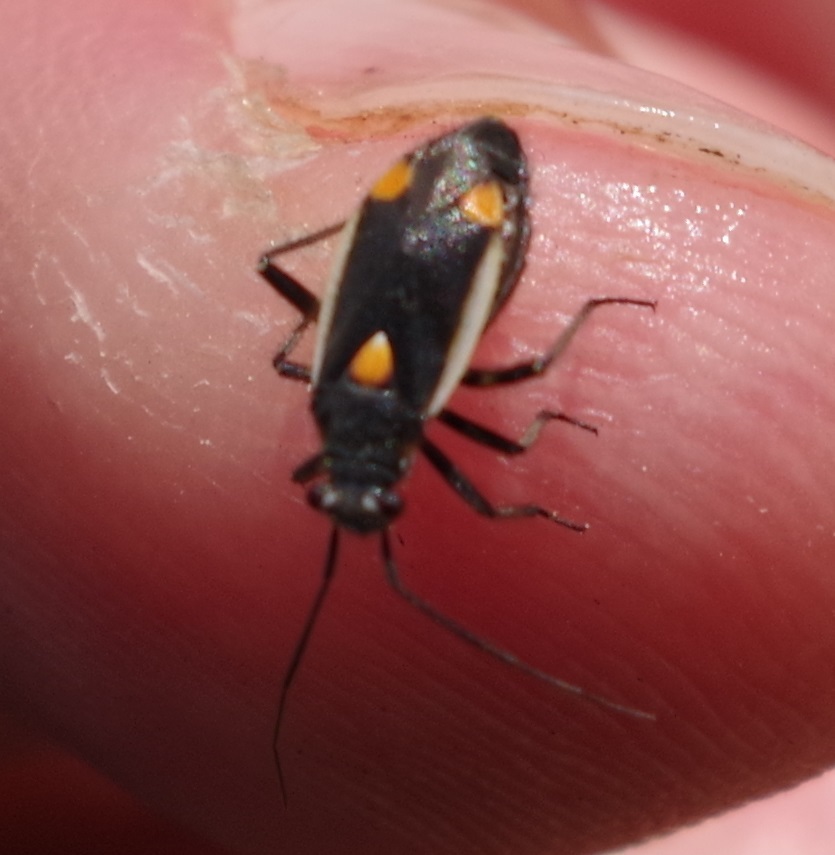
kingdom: Animalia
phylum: Arthropoda
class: Insecta
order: Hemiptera
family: Miridae
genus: Capsodes
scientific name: Capsodes gothicus
